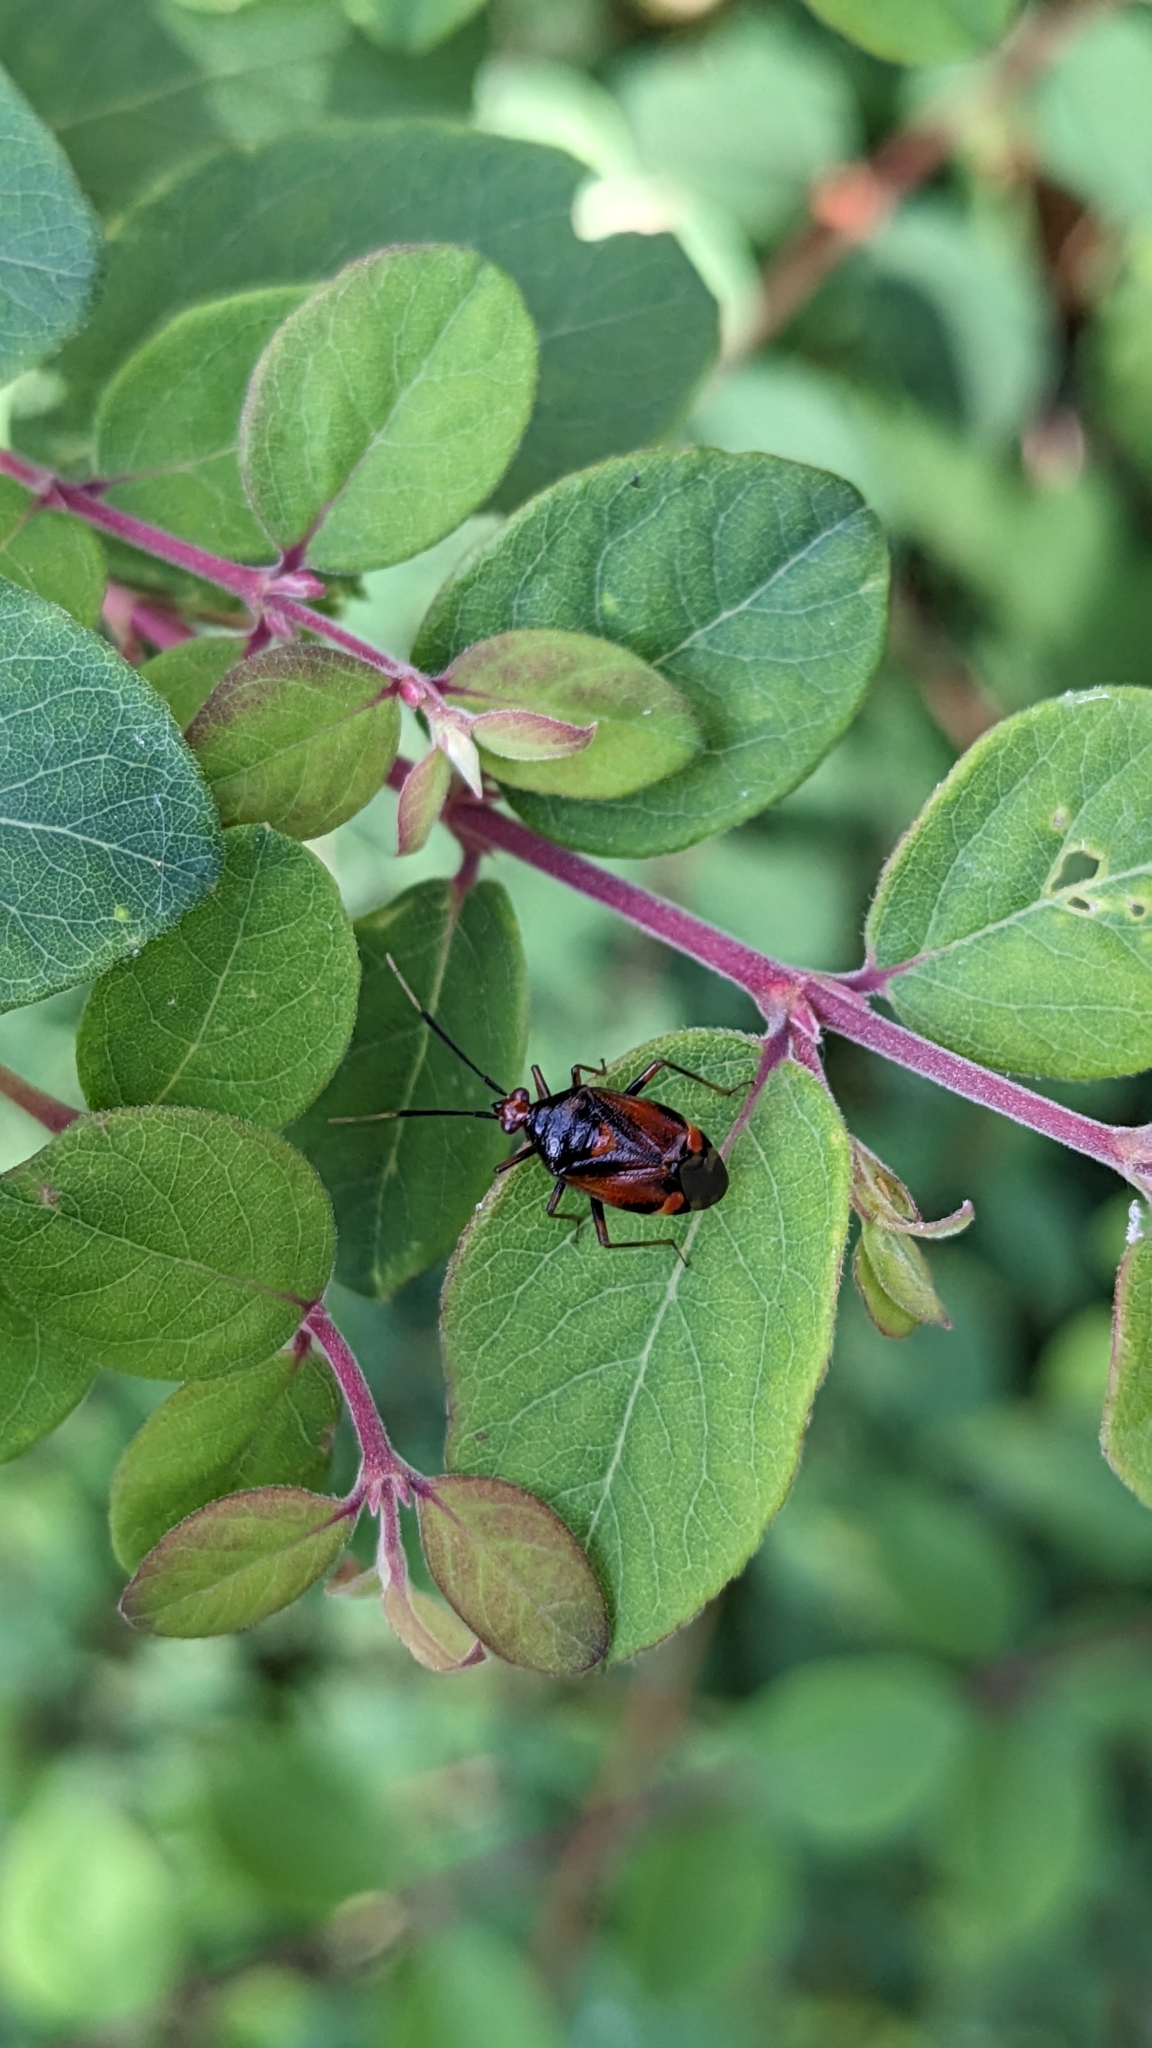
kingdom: Animalia
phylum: Arthropoda
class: Insecta
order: Hemiptera
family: Miridae
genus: Deraeocoris
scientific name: Deraeocoris ruber
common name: Plant bug
